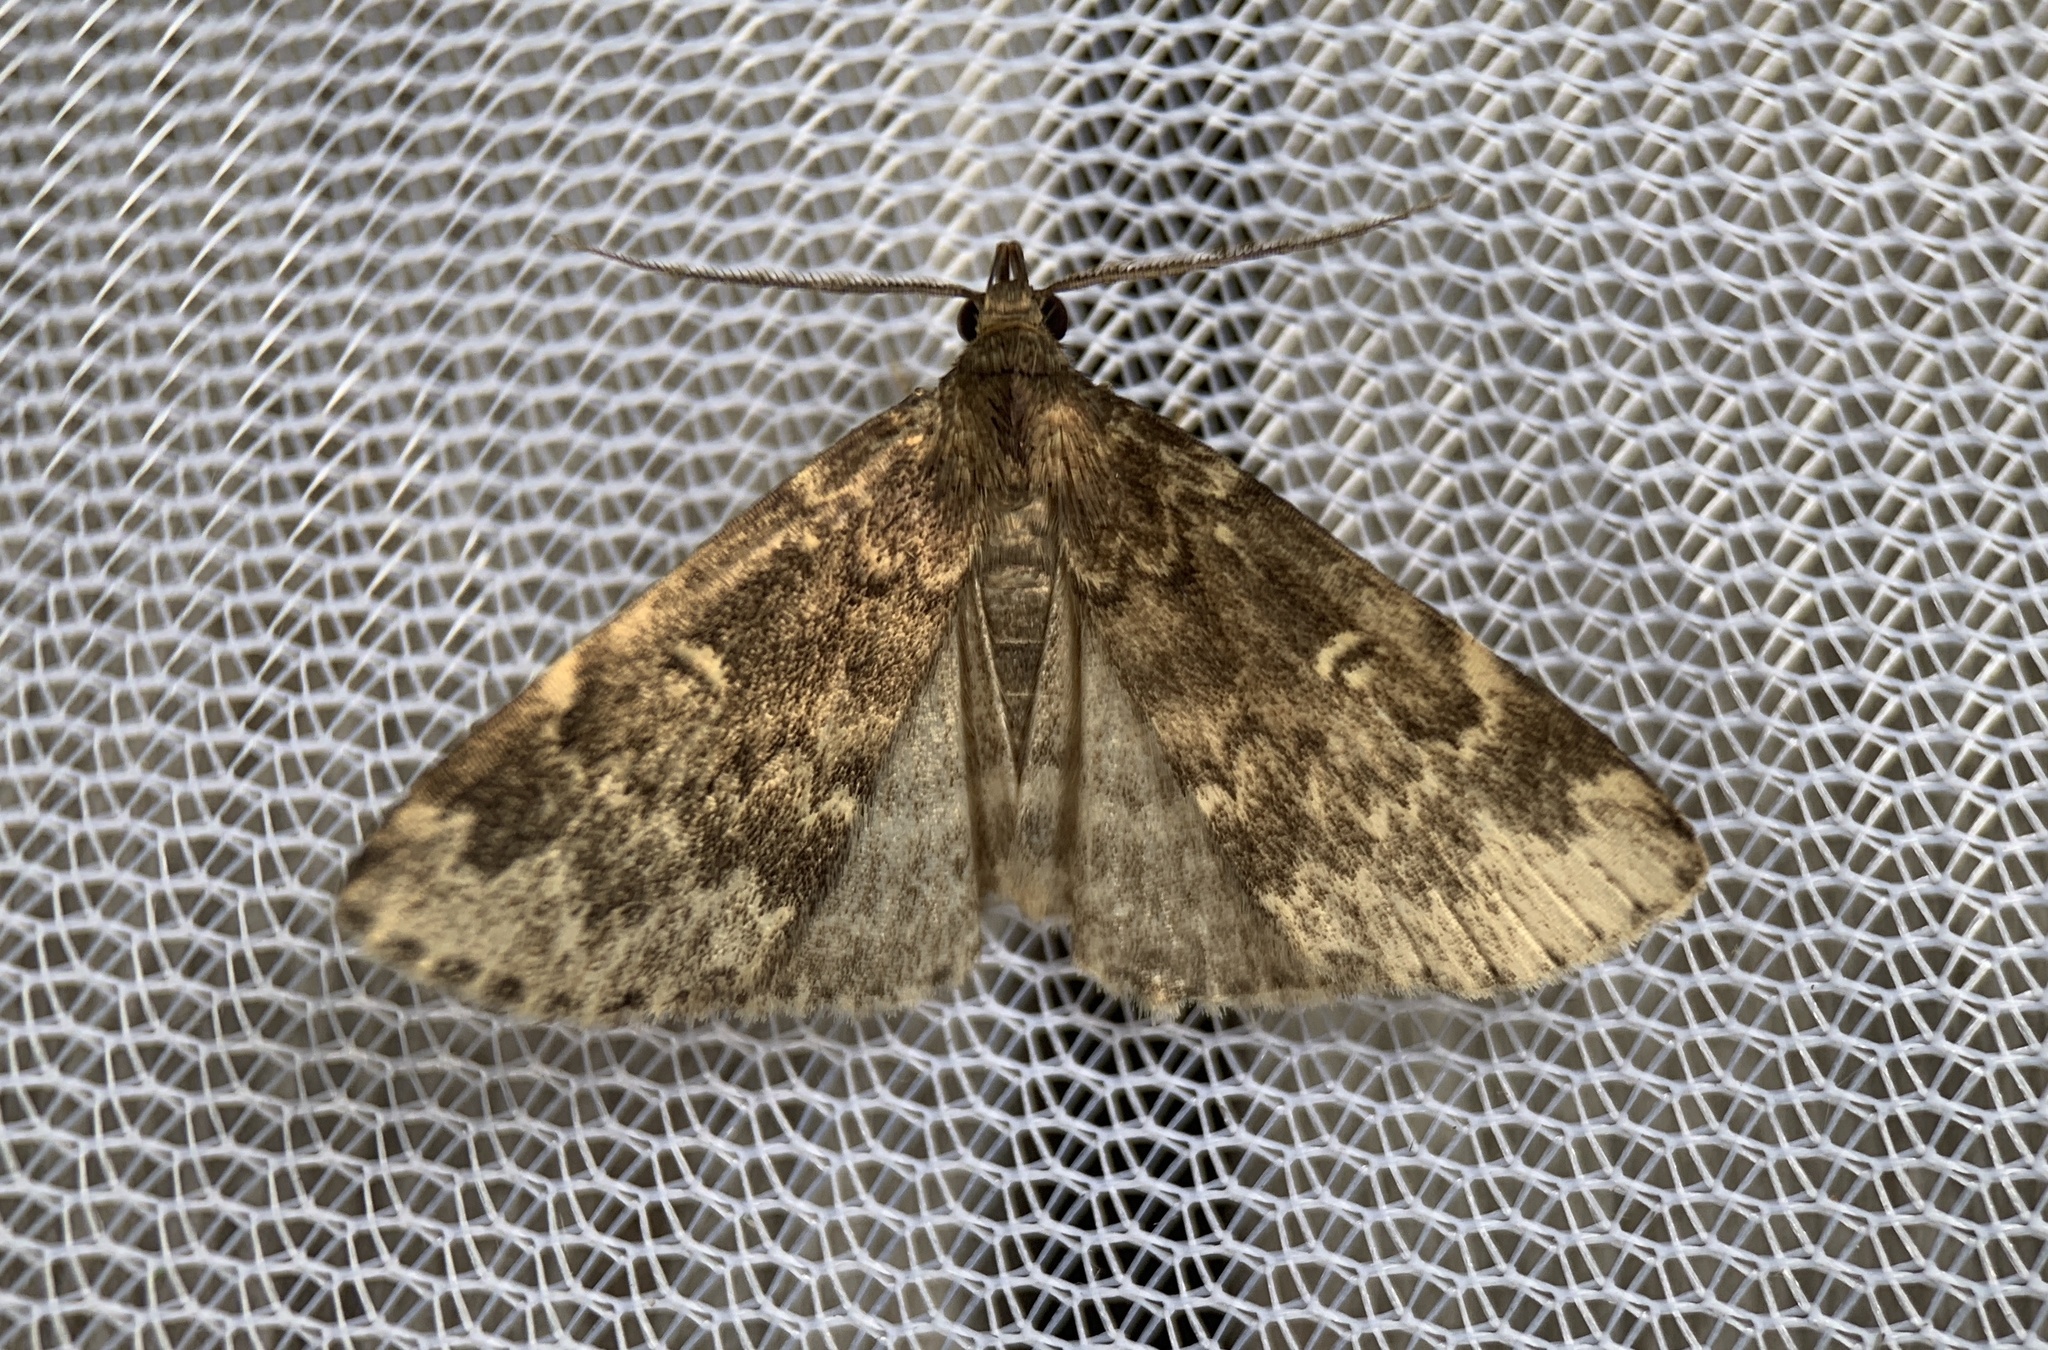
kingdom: Animalia
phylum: Arthropoda
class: Insecta
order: Lepidoptera
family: Erebidae
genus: Idia
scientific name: Idia lubricalis
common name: Twin-striped tabby
